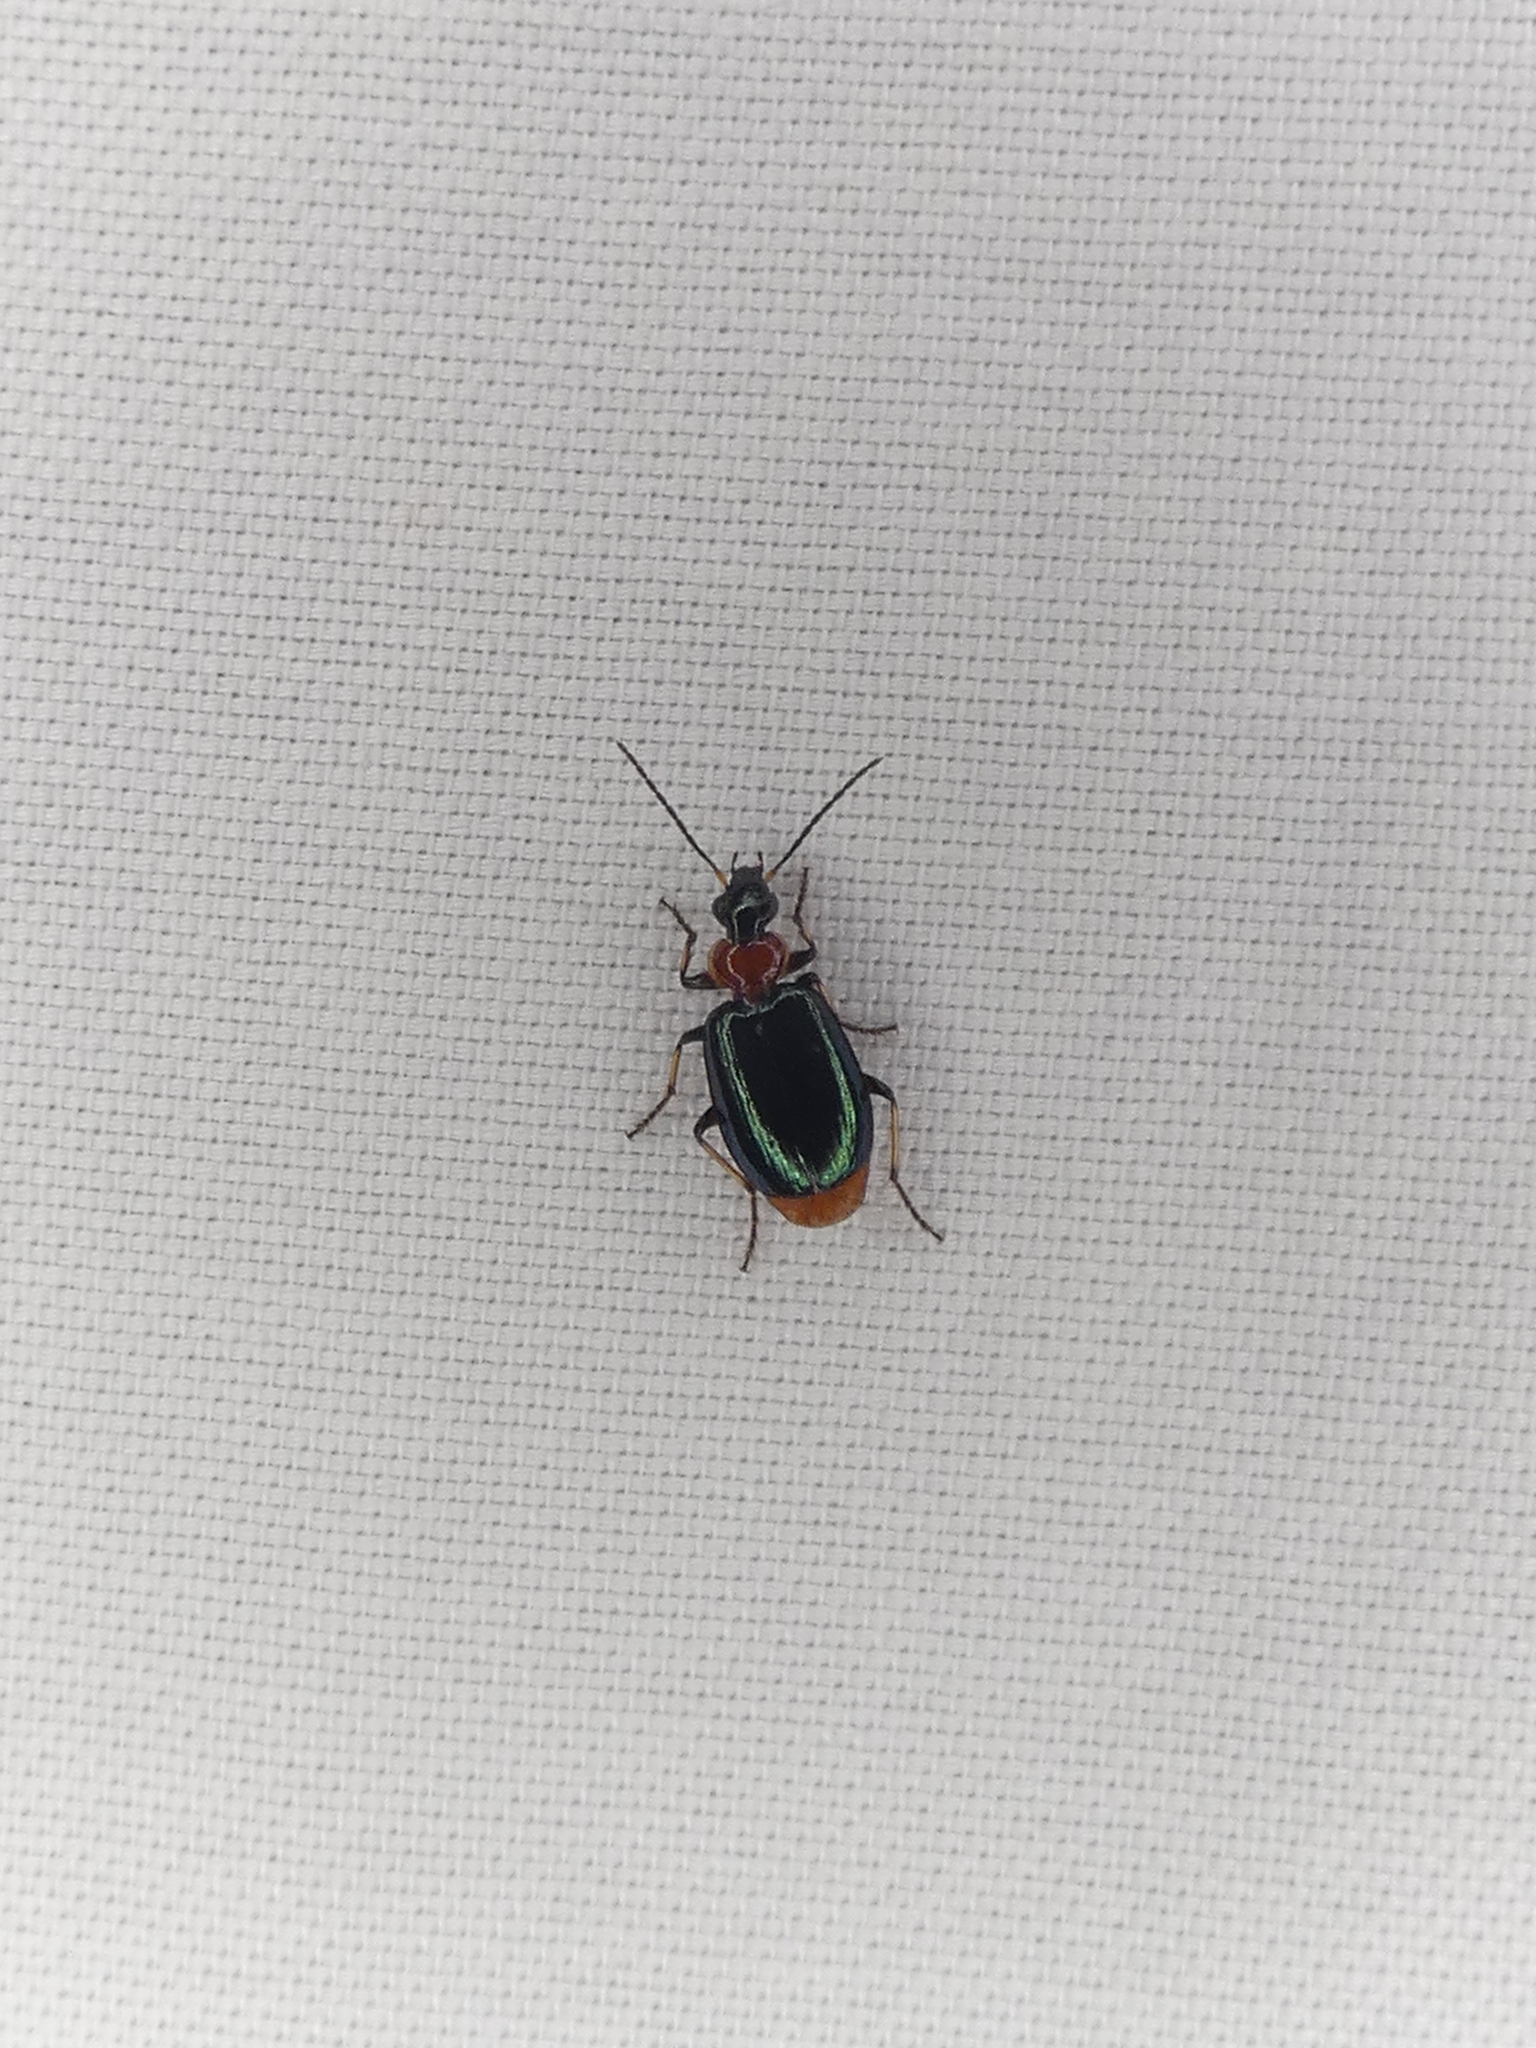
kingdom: Animalia
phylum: Arthropoda
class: Insecta
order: Coleoptera
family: Carabidae
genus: Lebia
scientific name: Lebia viridipennis
